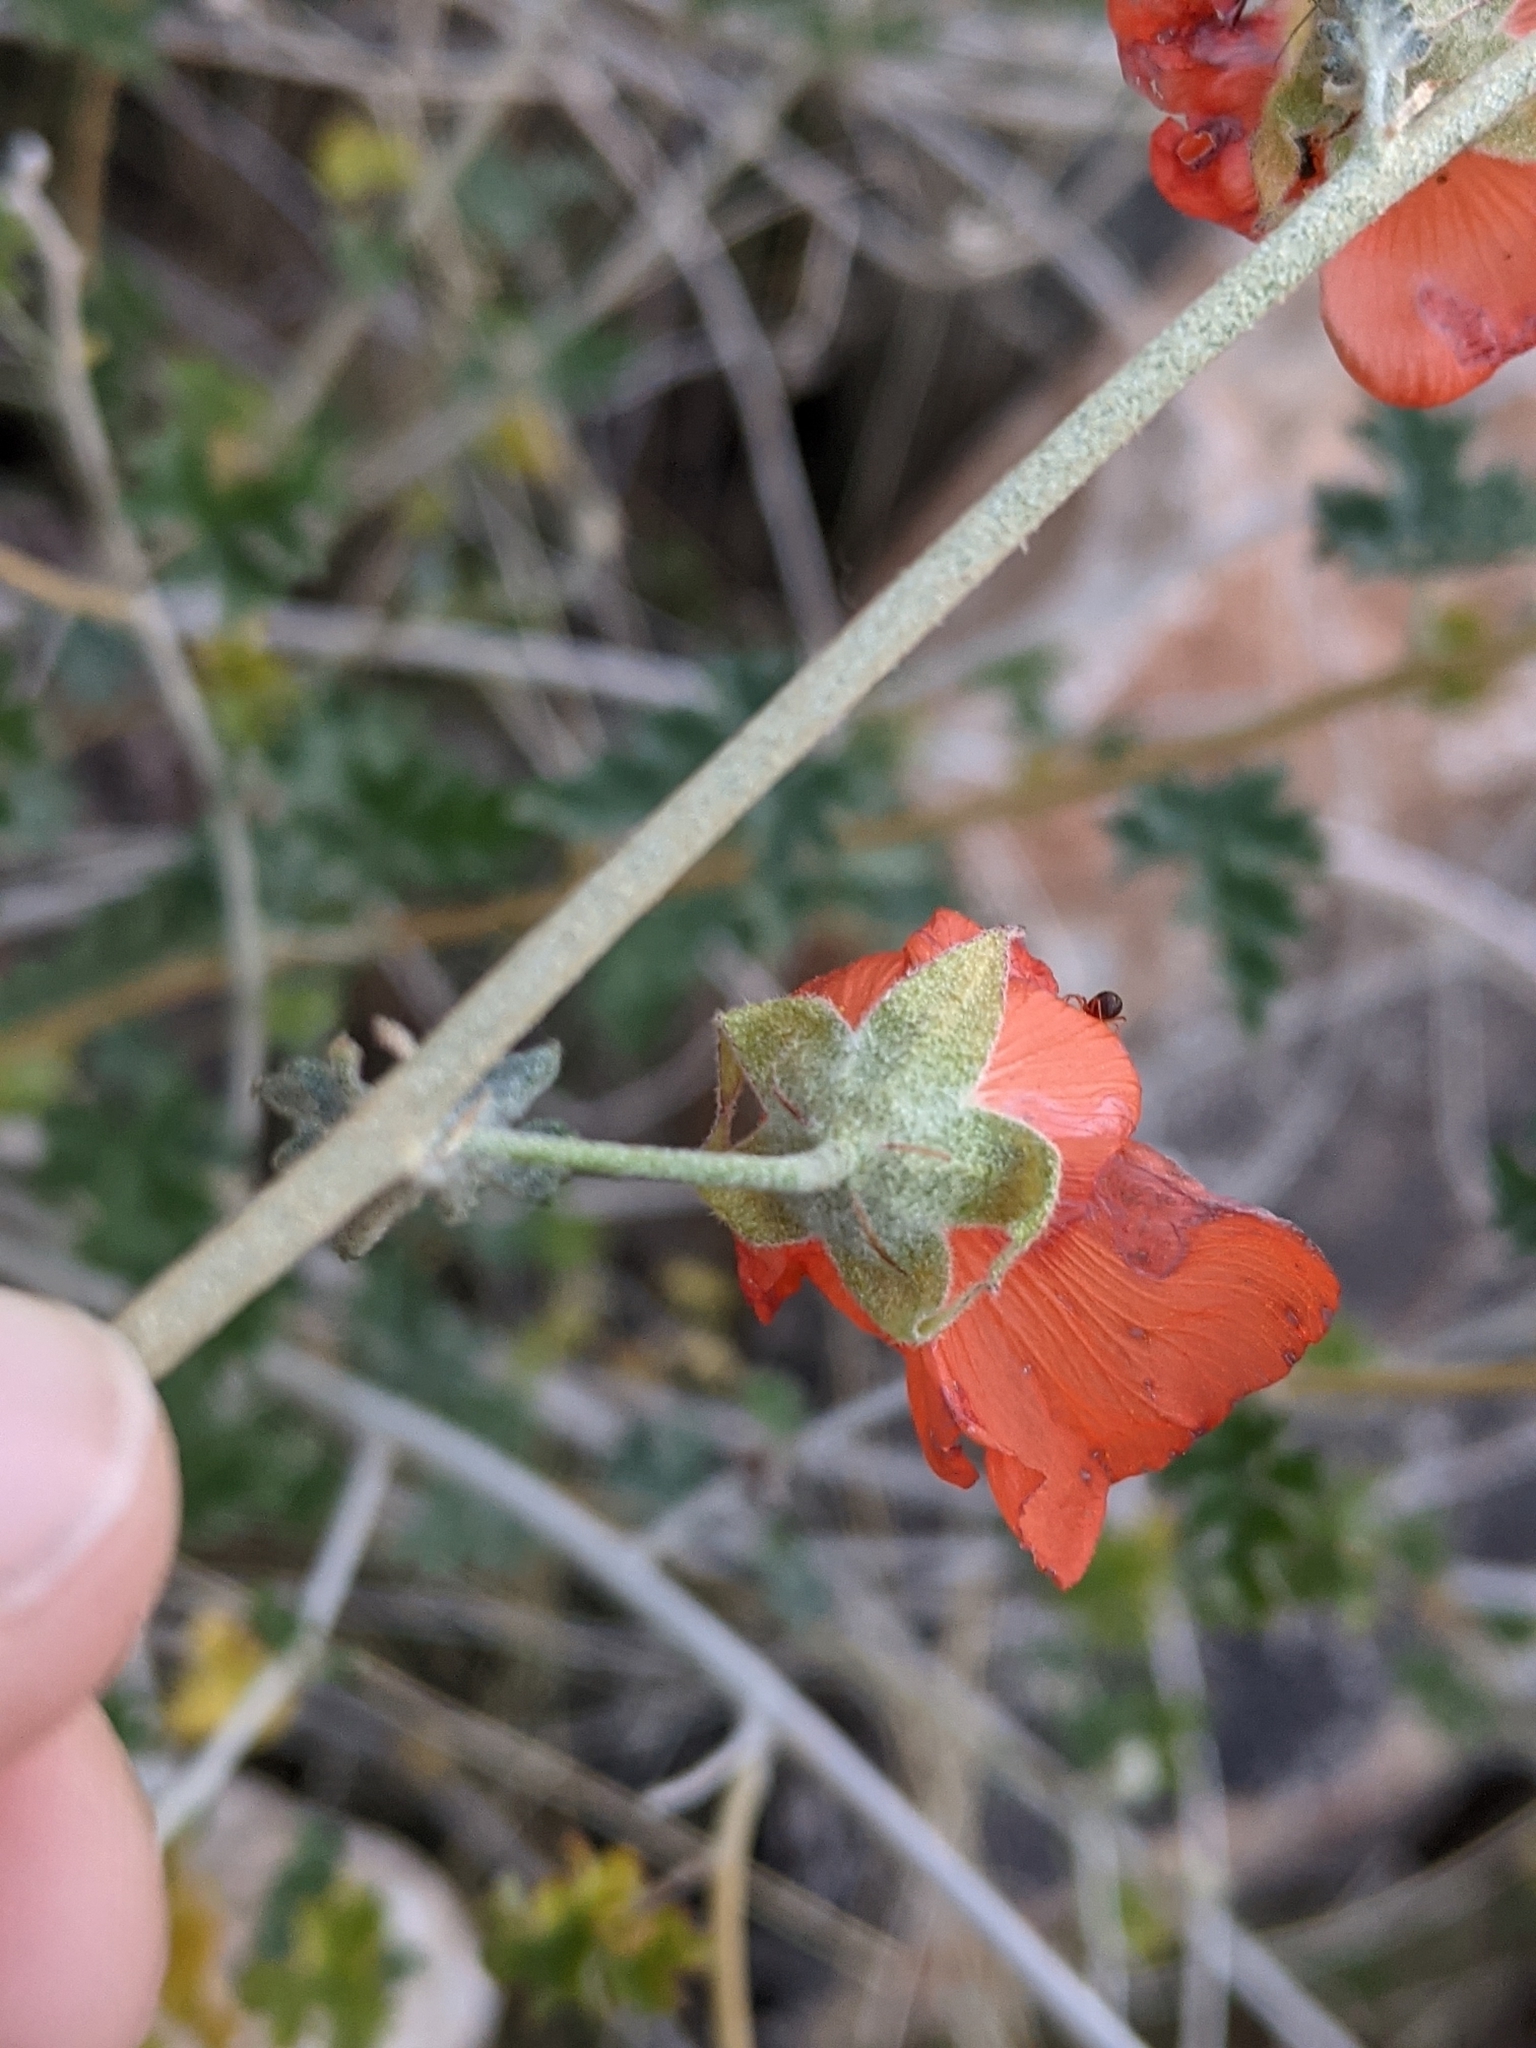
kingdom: Plantae
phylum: Tracheophyta
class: Magnoliopsida
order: Malvales
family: Malvaceae
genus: Sphaeralcea
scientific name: Sphaeralcea ambigua
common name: Apricot globe-mallow
